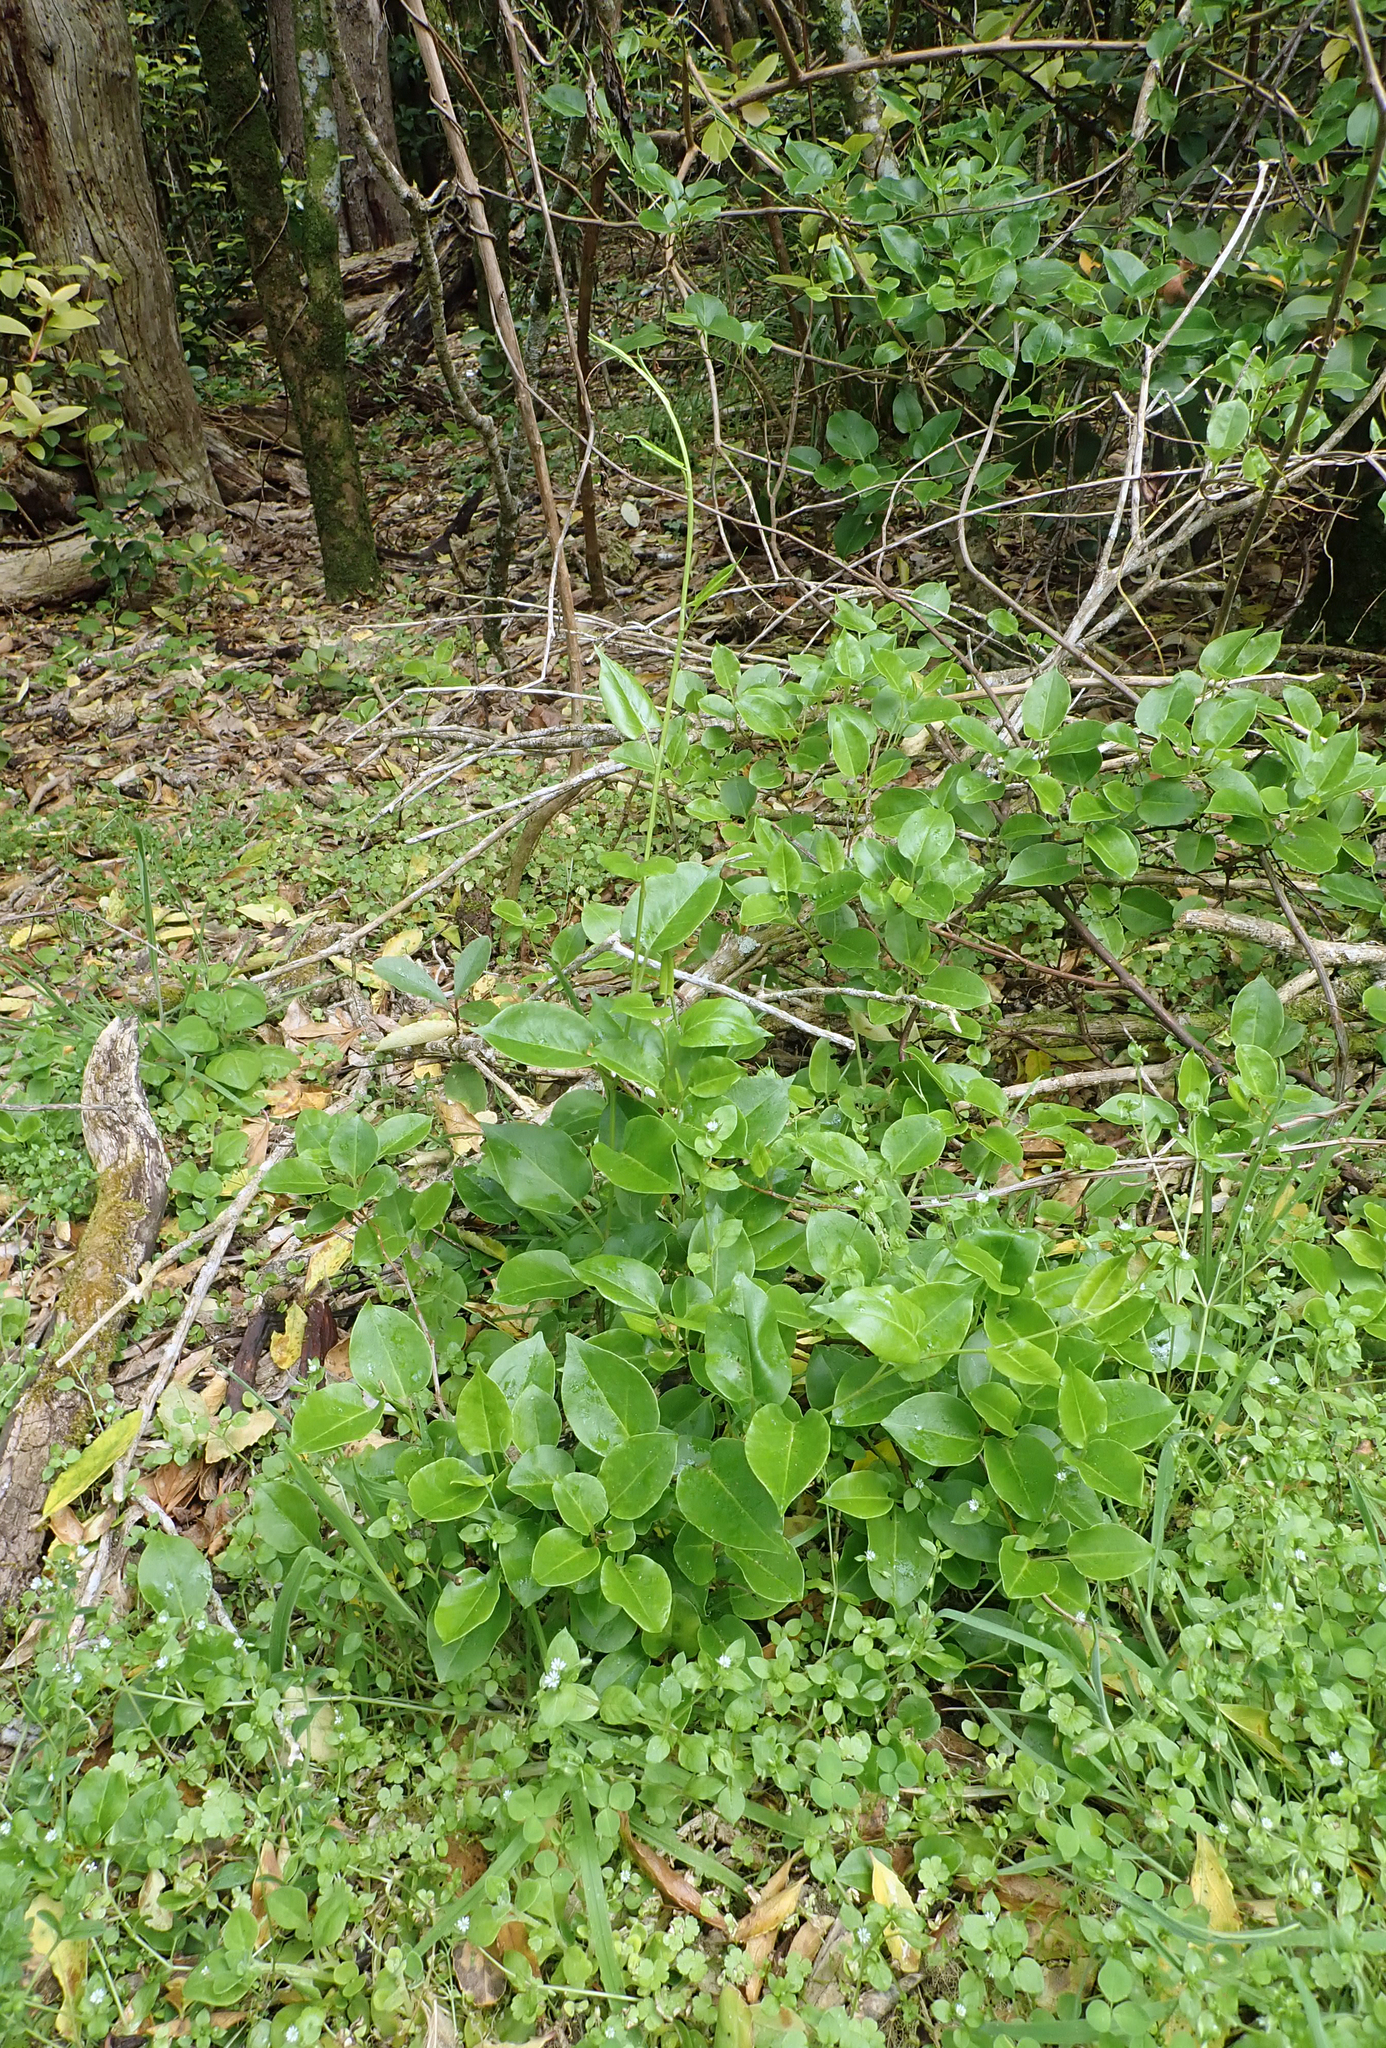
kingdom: Plantae
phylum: Tracheophyta
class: Magnoliopsida
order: Caryophyllales
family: Polygonaceae
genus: Muehlenbeckia
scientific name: Muehlenbeckia australis
